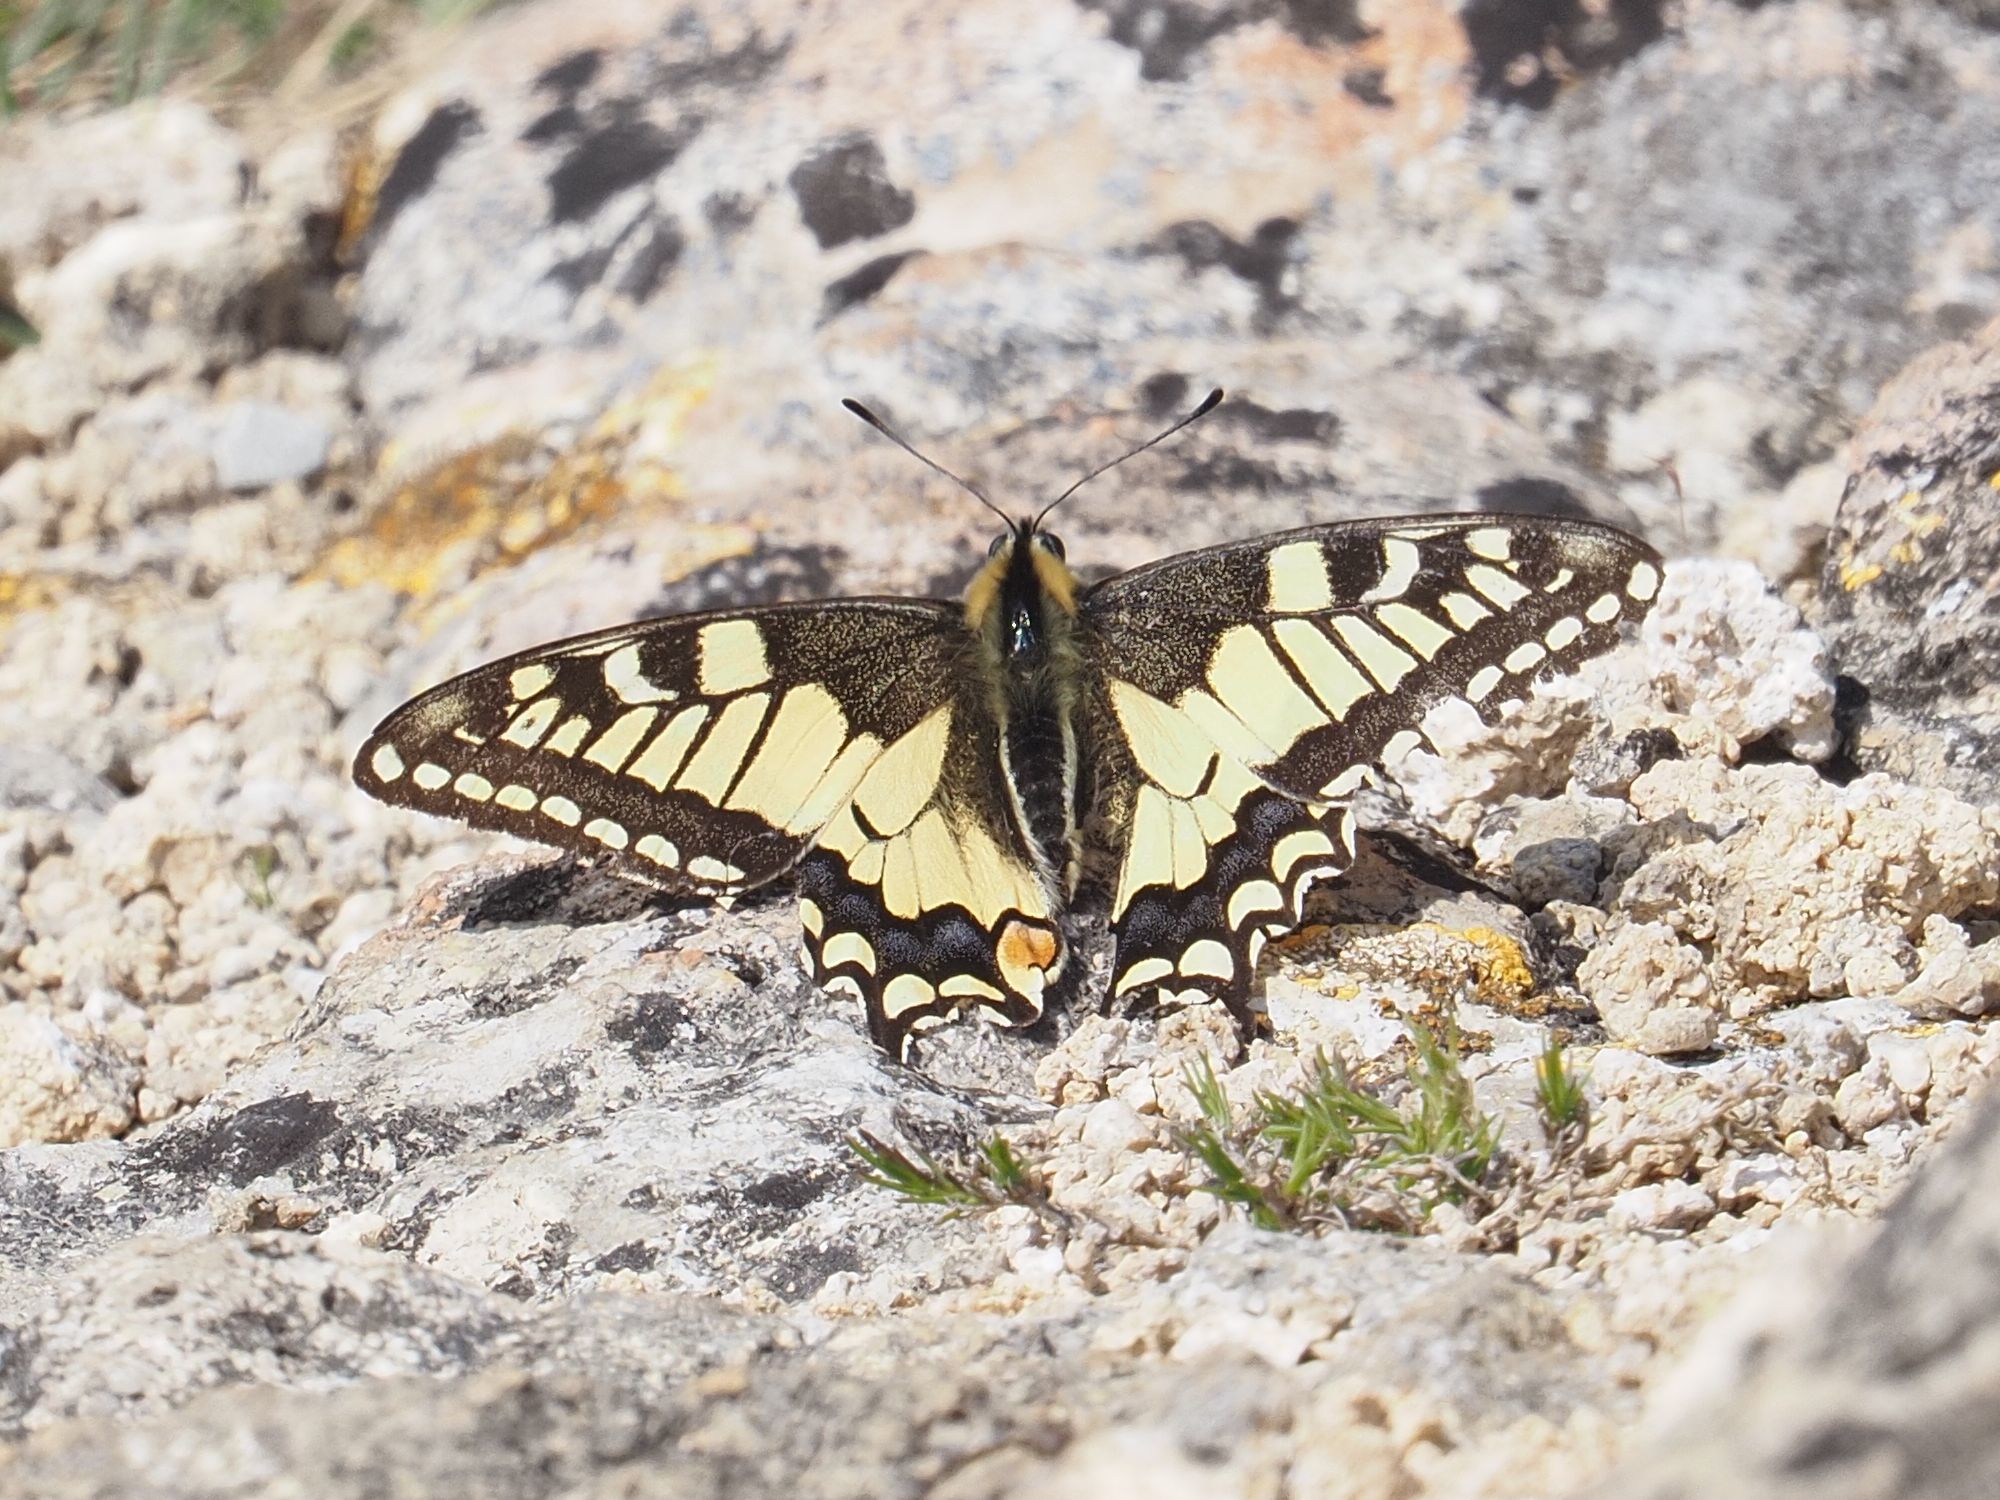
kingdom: Animalia
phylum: Arthropoda
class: Insecta
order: Lepidoptera
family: Papilionidae
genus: Papilio
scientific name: Papilio machaon
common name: Swallowtail
